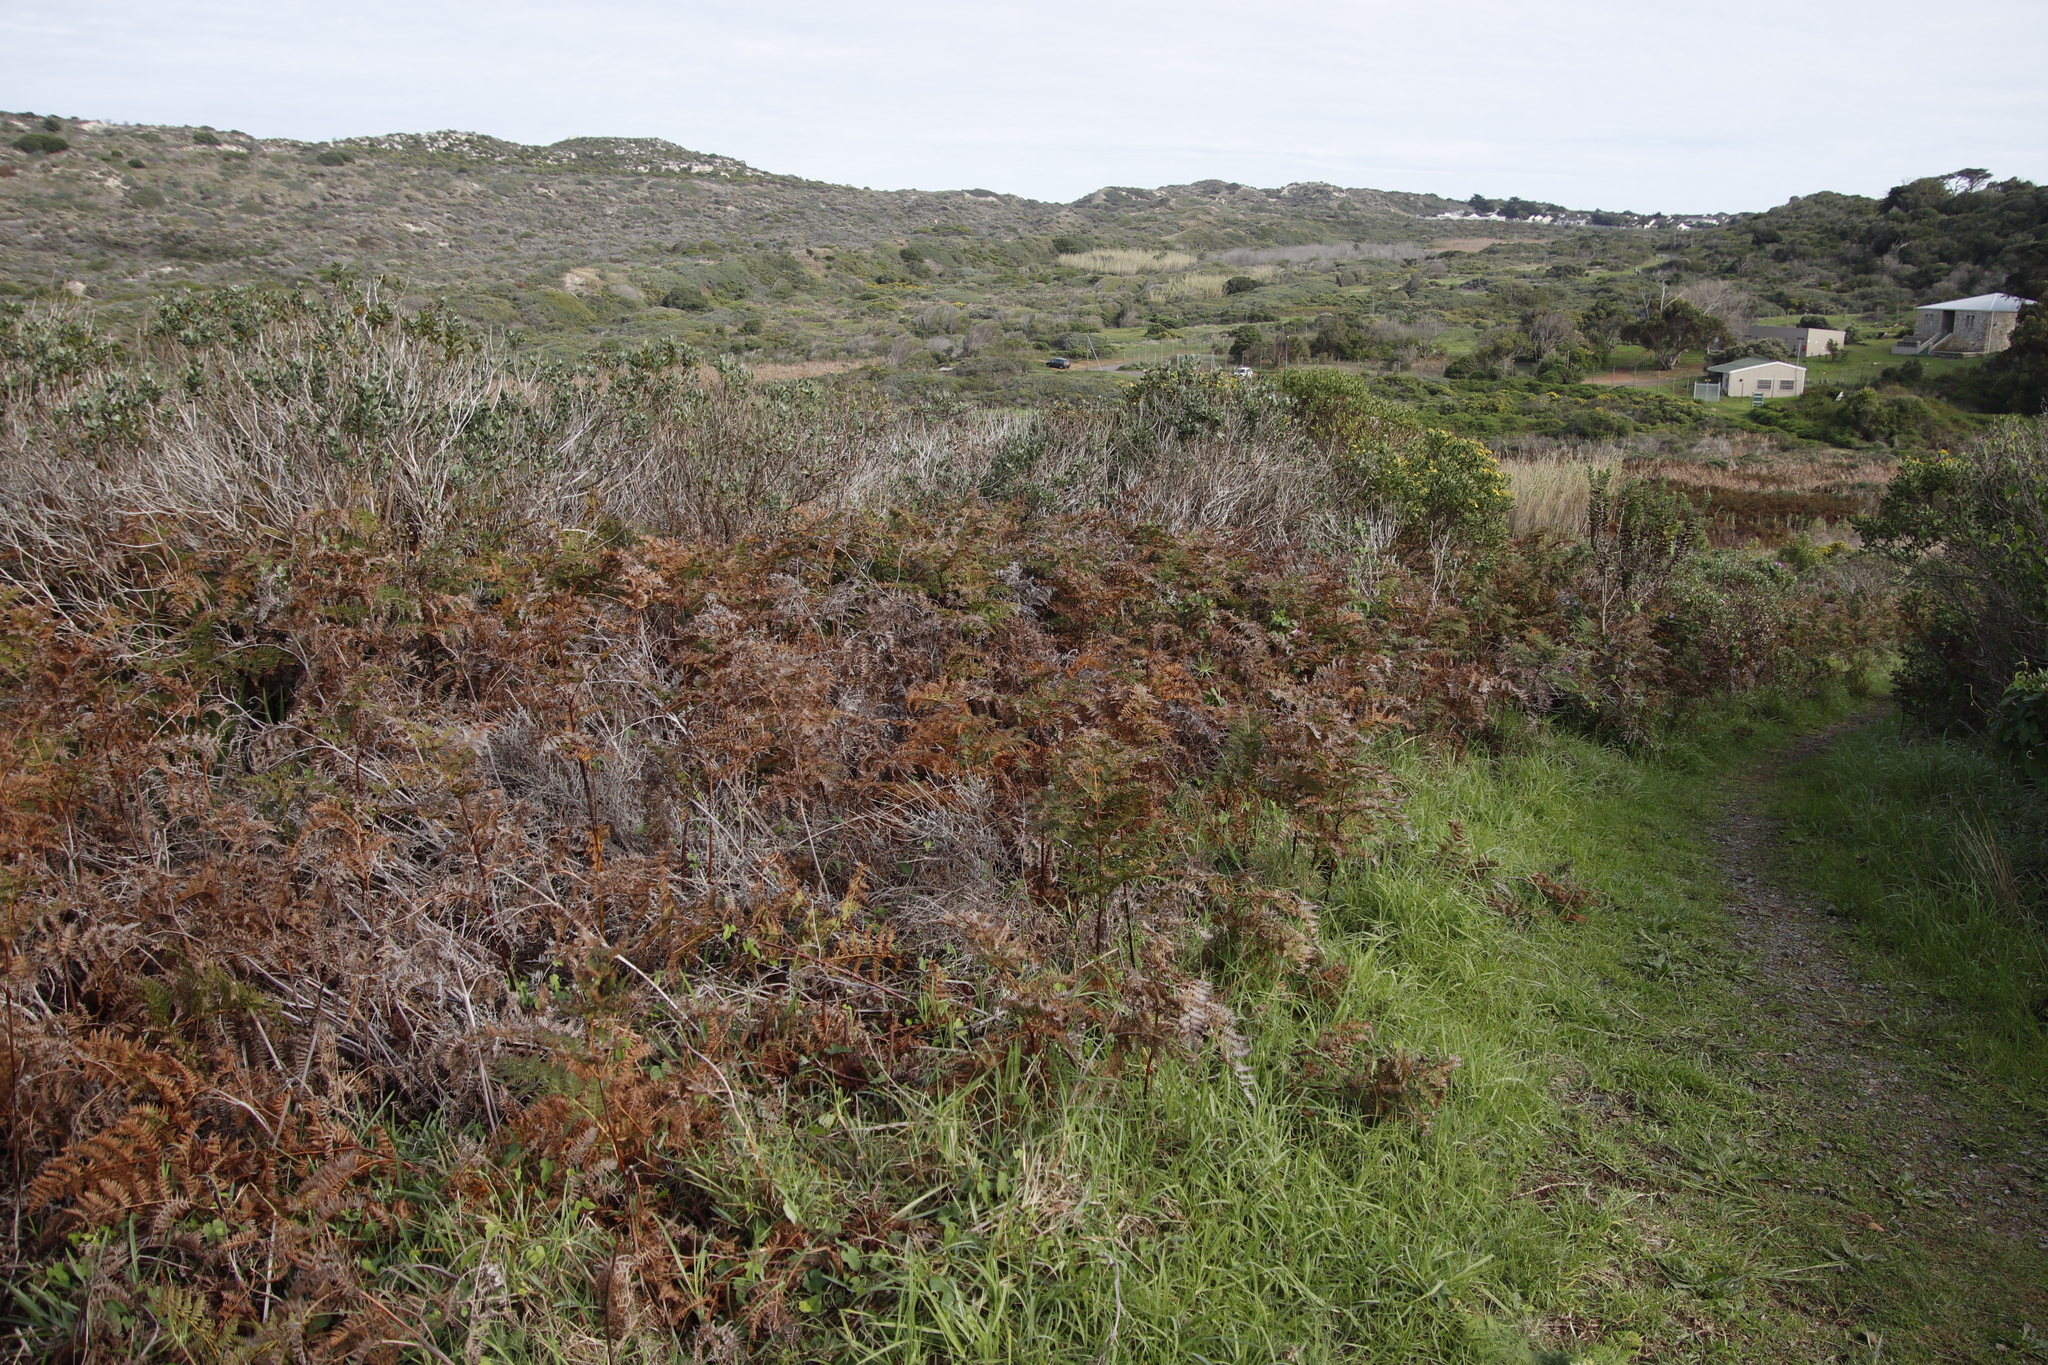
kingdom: Plantae
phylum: Tracheophyta
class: Polypodiopsida
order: Polypodiales
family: Dennstaedtiaceae
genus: Pteridium
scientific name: Pteridium aquilinum
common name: Bracken
